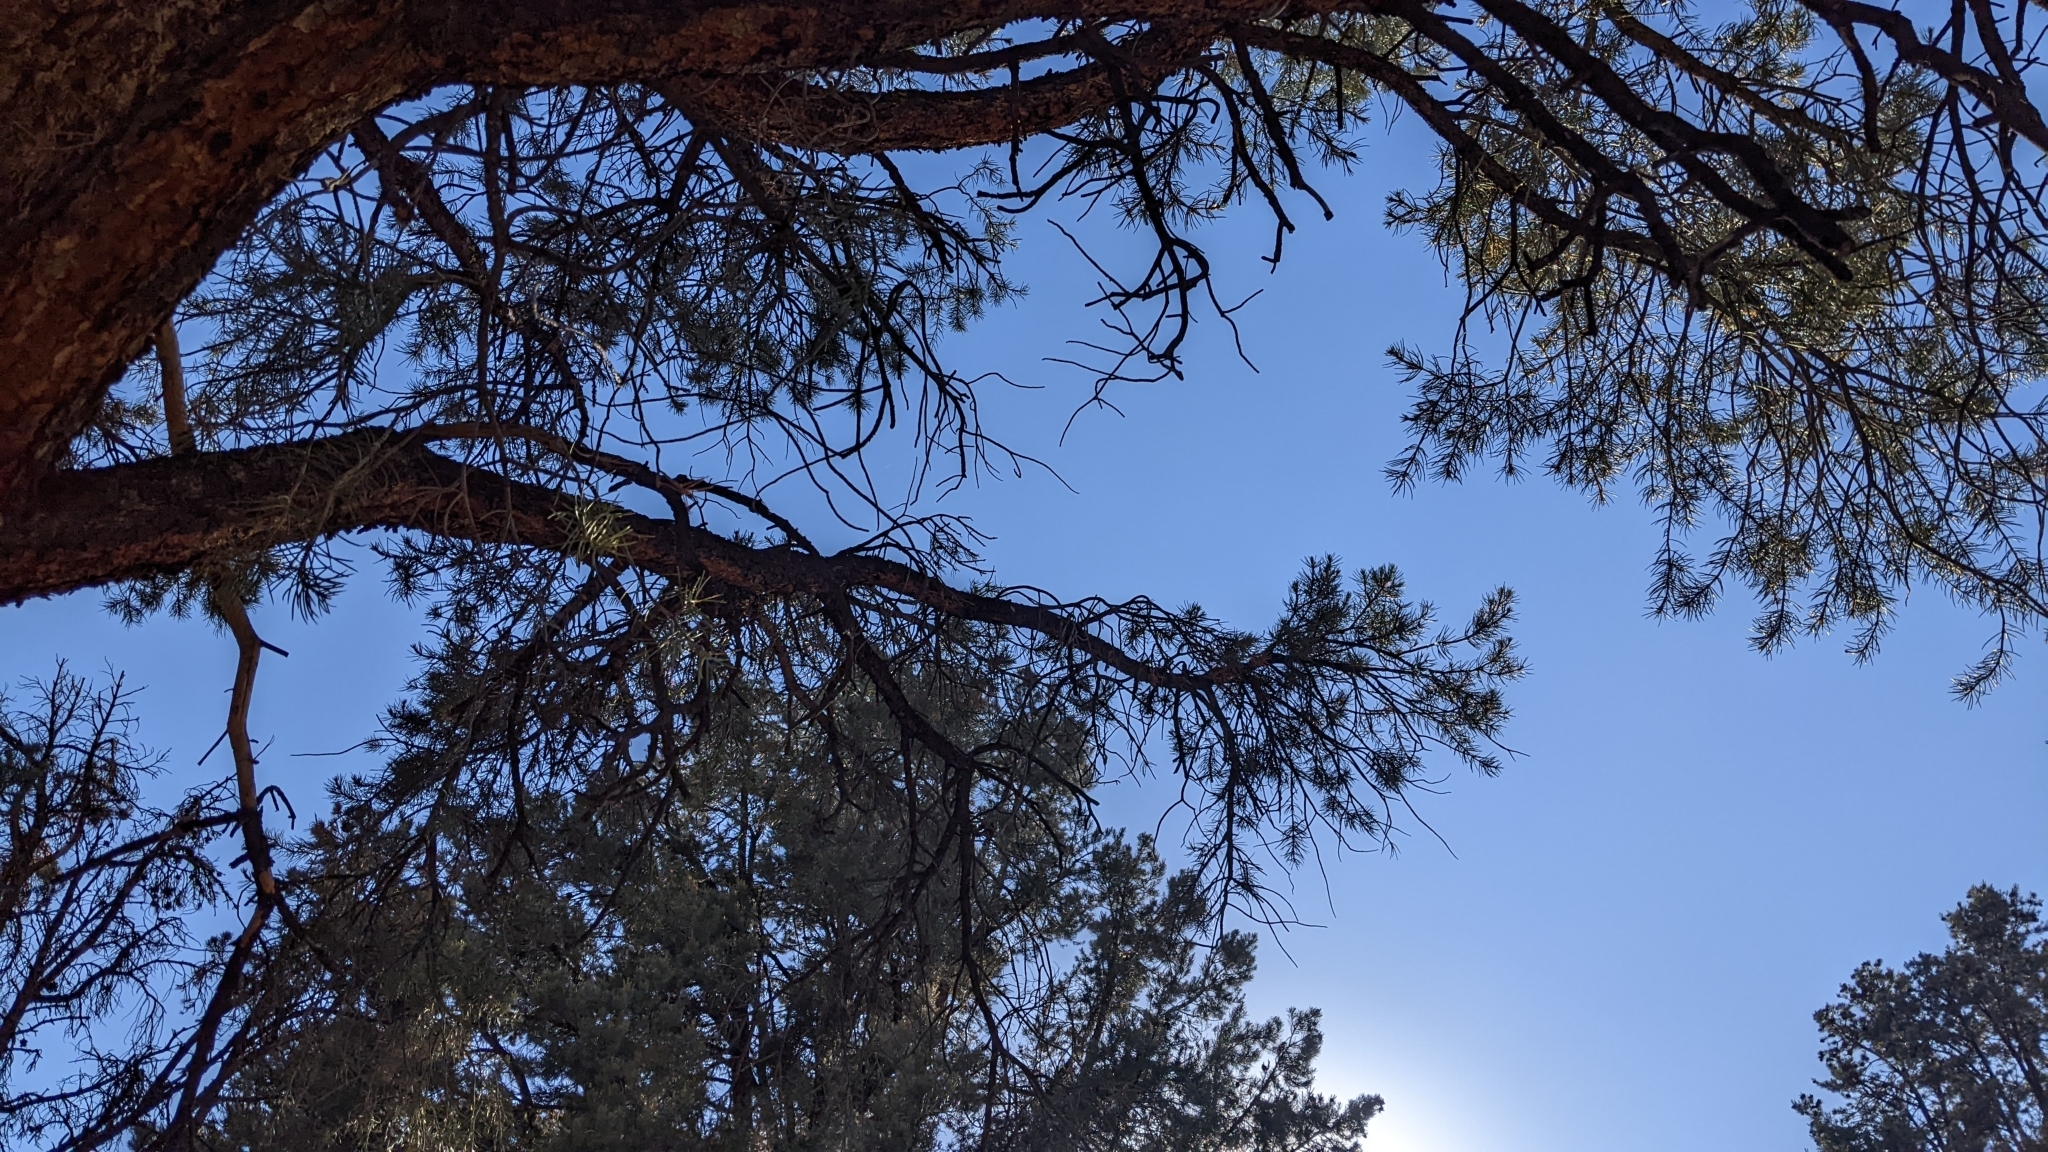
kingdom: Plantae
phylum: Tracheophyta
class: Pinopsida
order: Pinales
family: Pinaceae
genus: Pinus
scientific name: Pinus monophylla
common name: One-leaved nut pine
